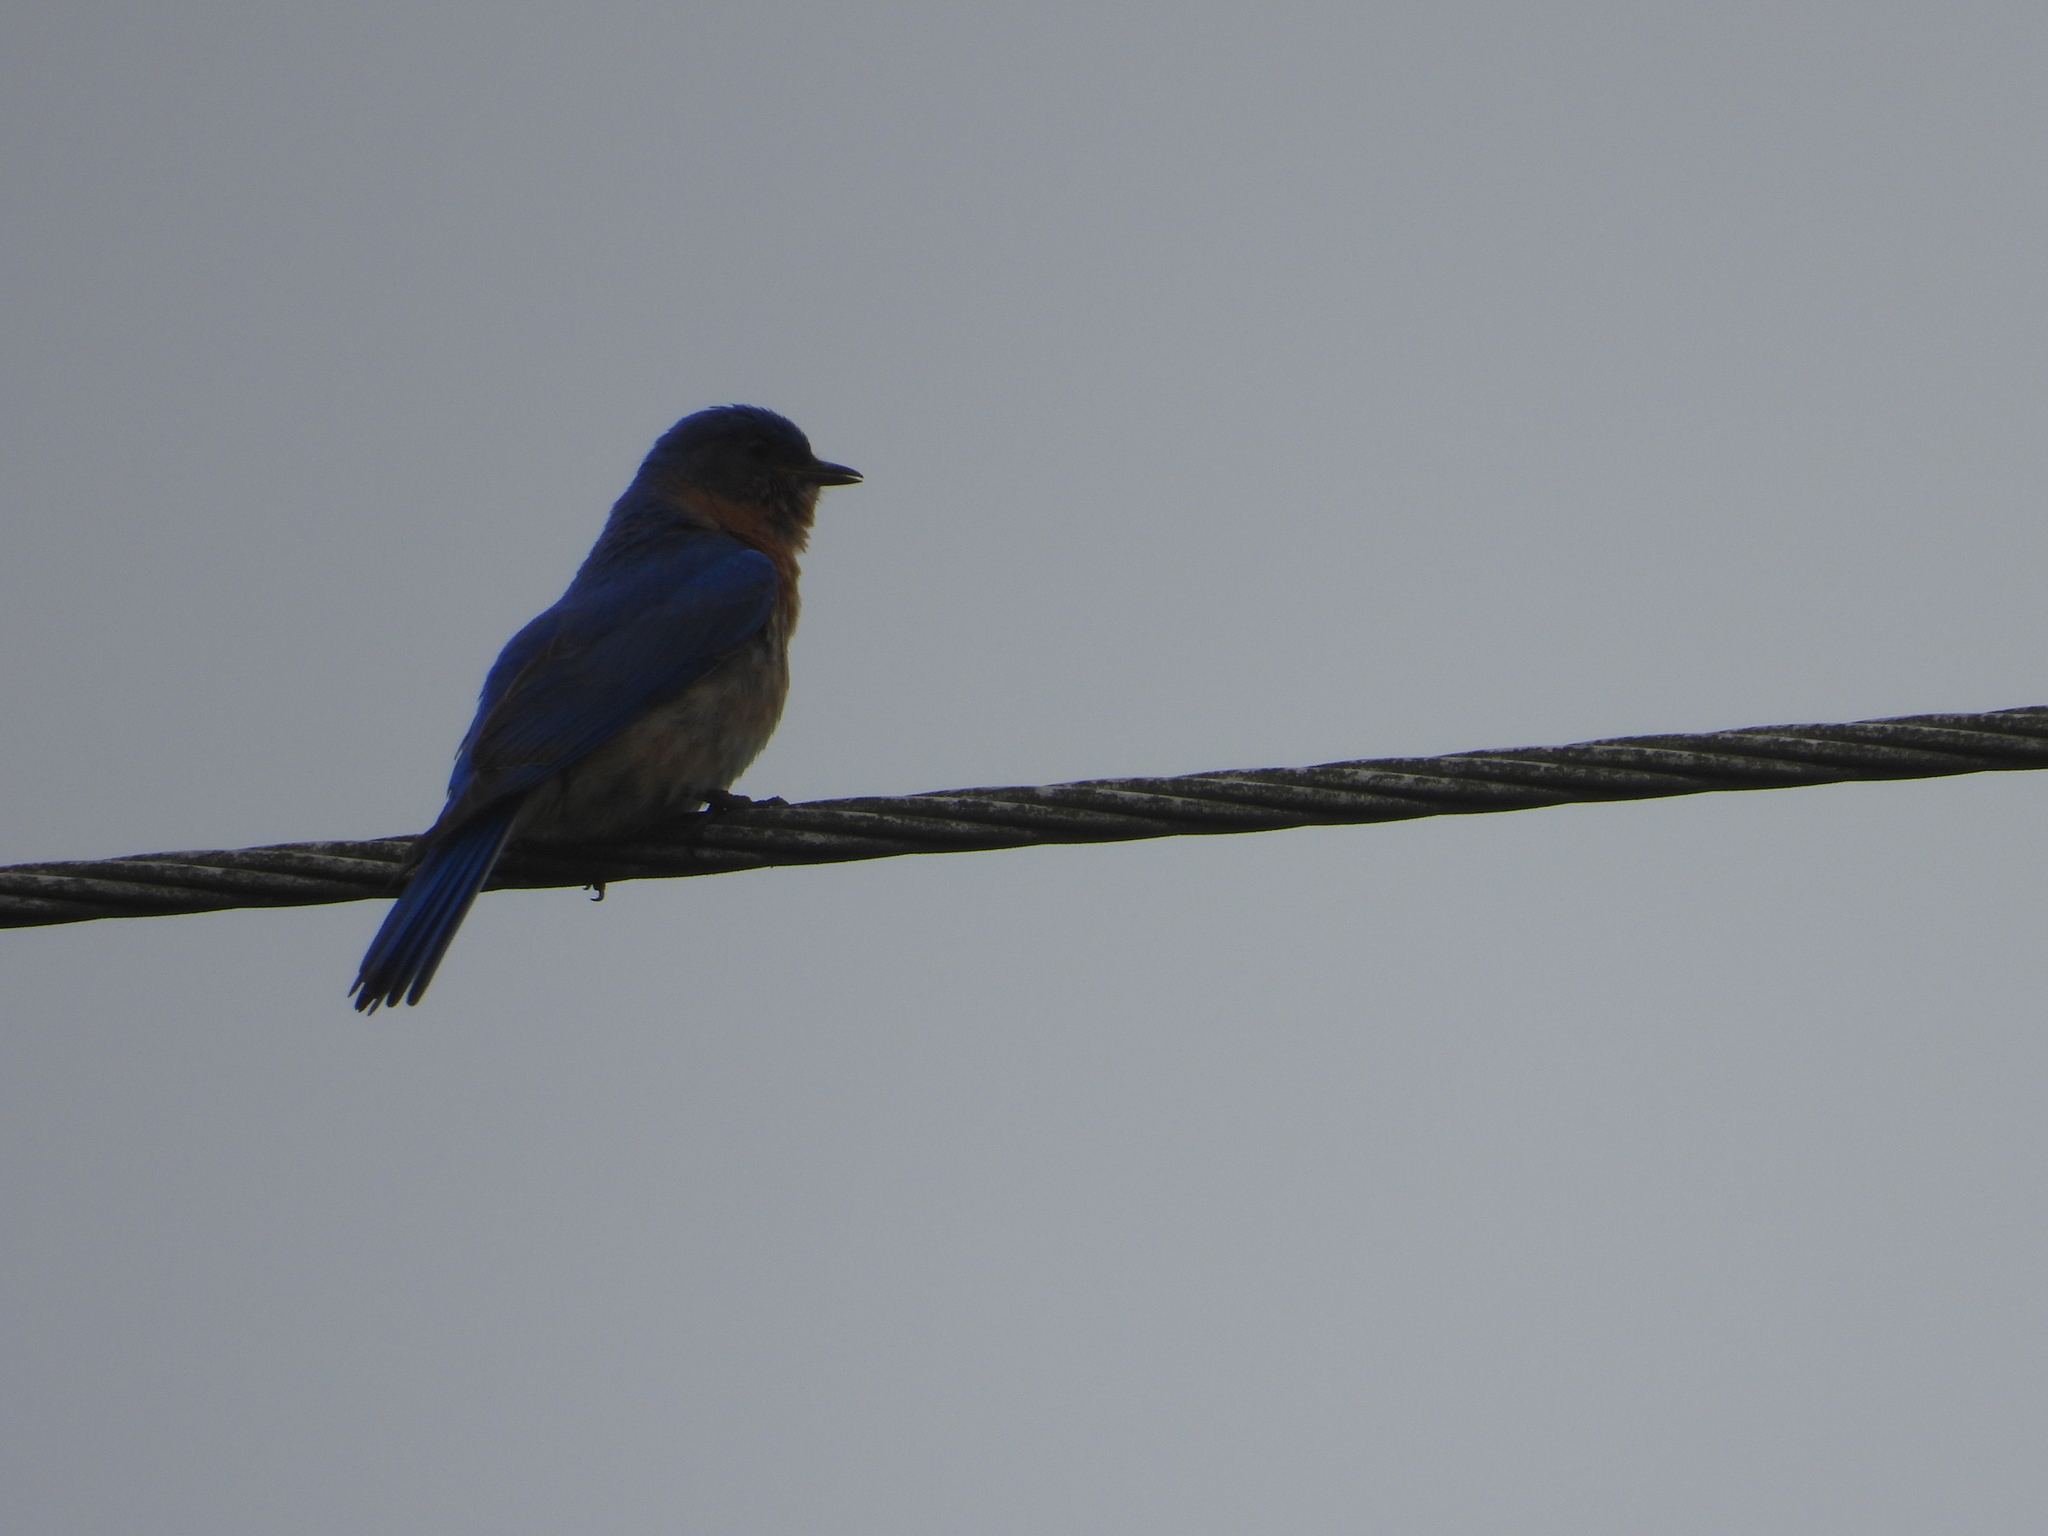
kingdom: Animalia
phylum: Chordata
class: Aves
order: Passeriformes
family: Turdidae
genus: Sialia
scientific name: Sialia sialis
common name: Eastern bluebird
